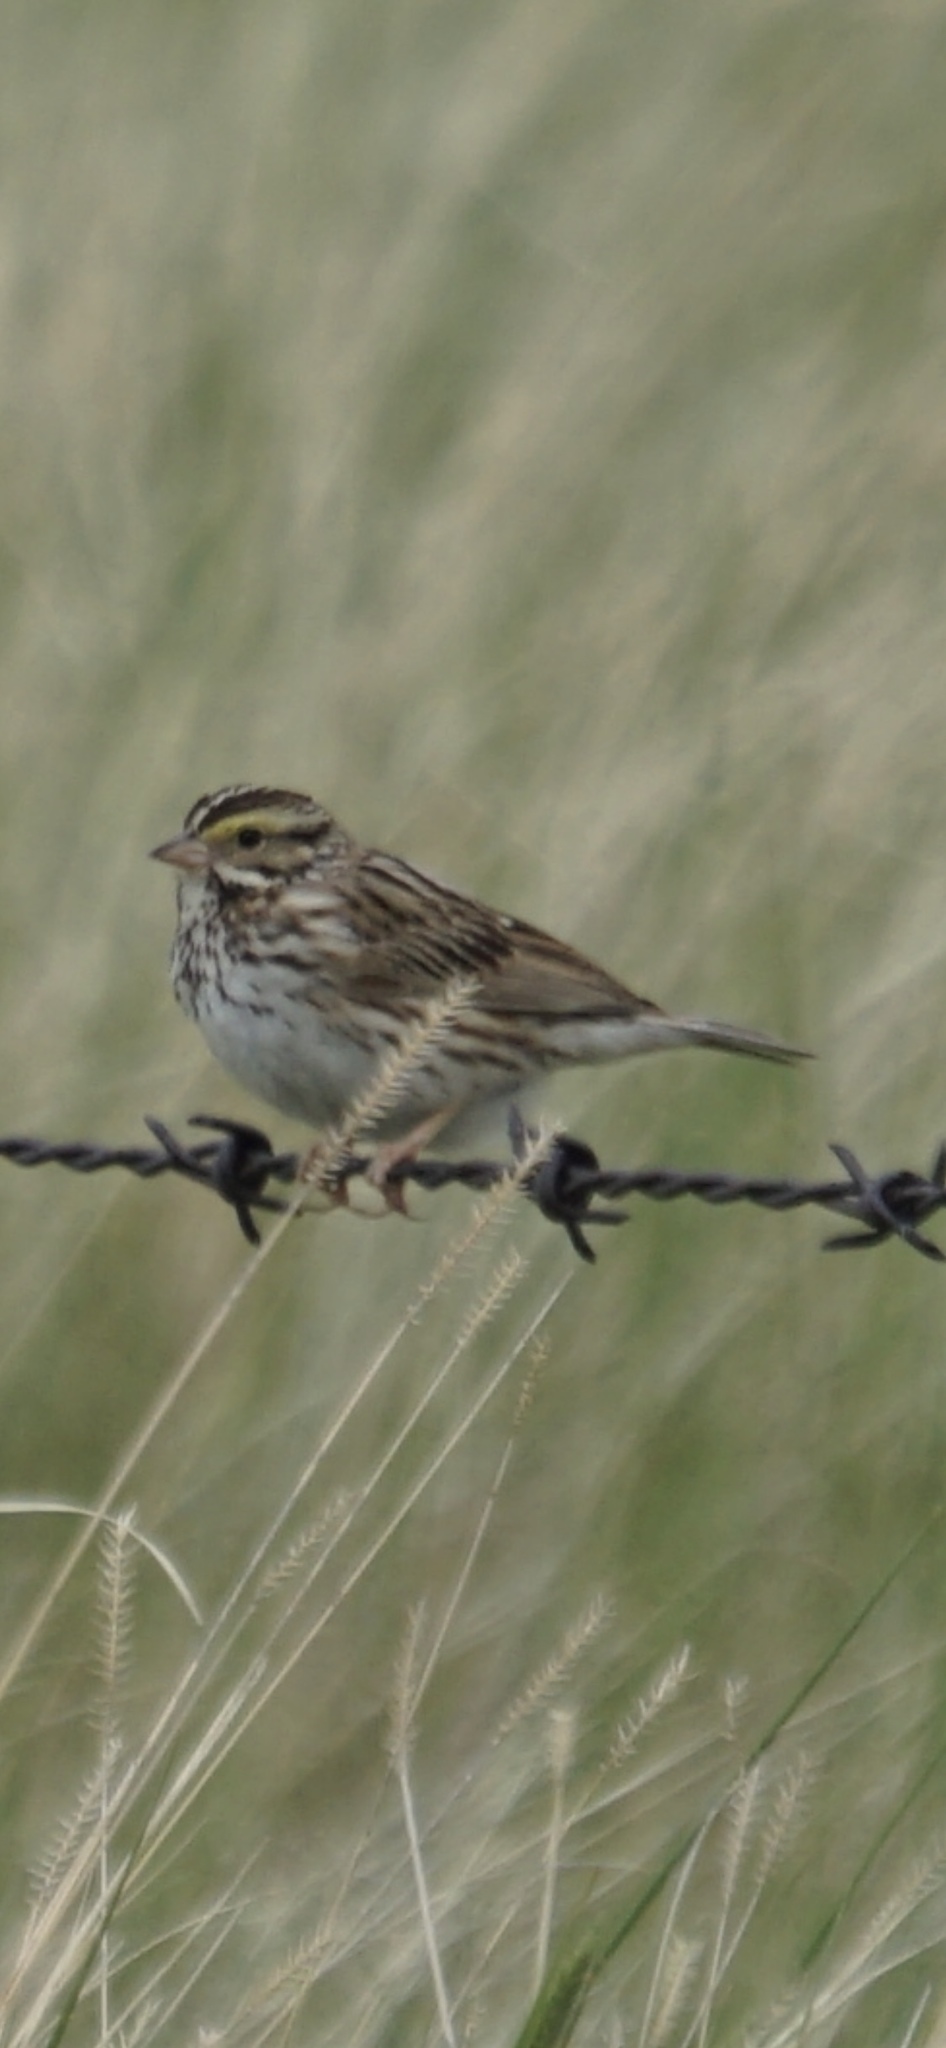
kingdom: Animalia
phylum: Chordata
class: Aves
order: Passeriformes
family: Passerellidae
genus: Passerculus
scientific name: Passerculus sandwichensis
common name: Savannah sparrow
